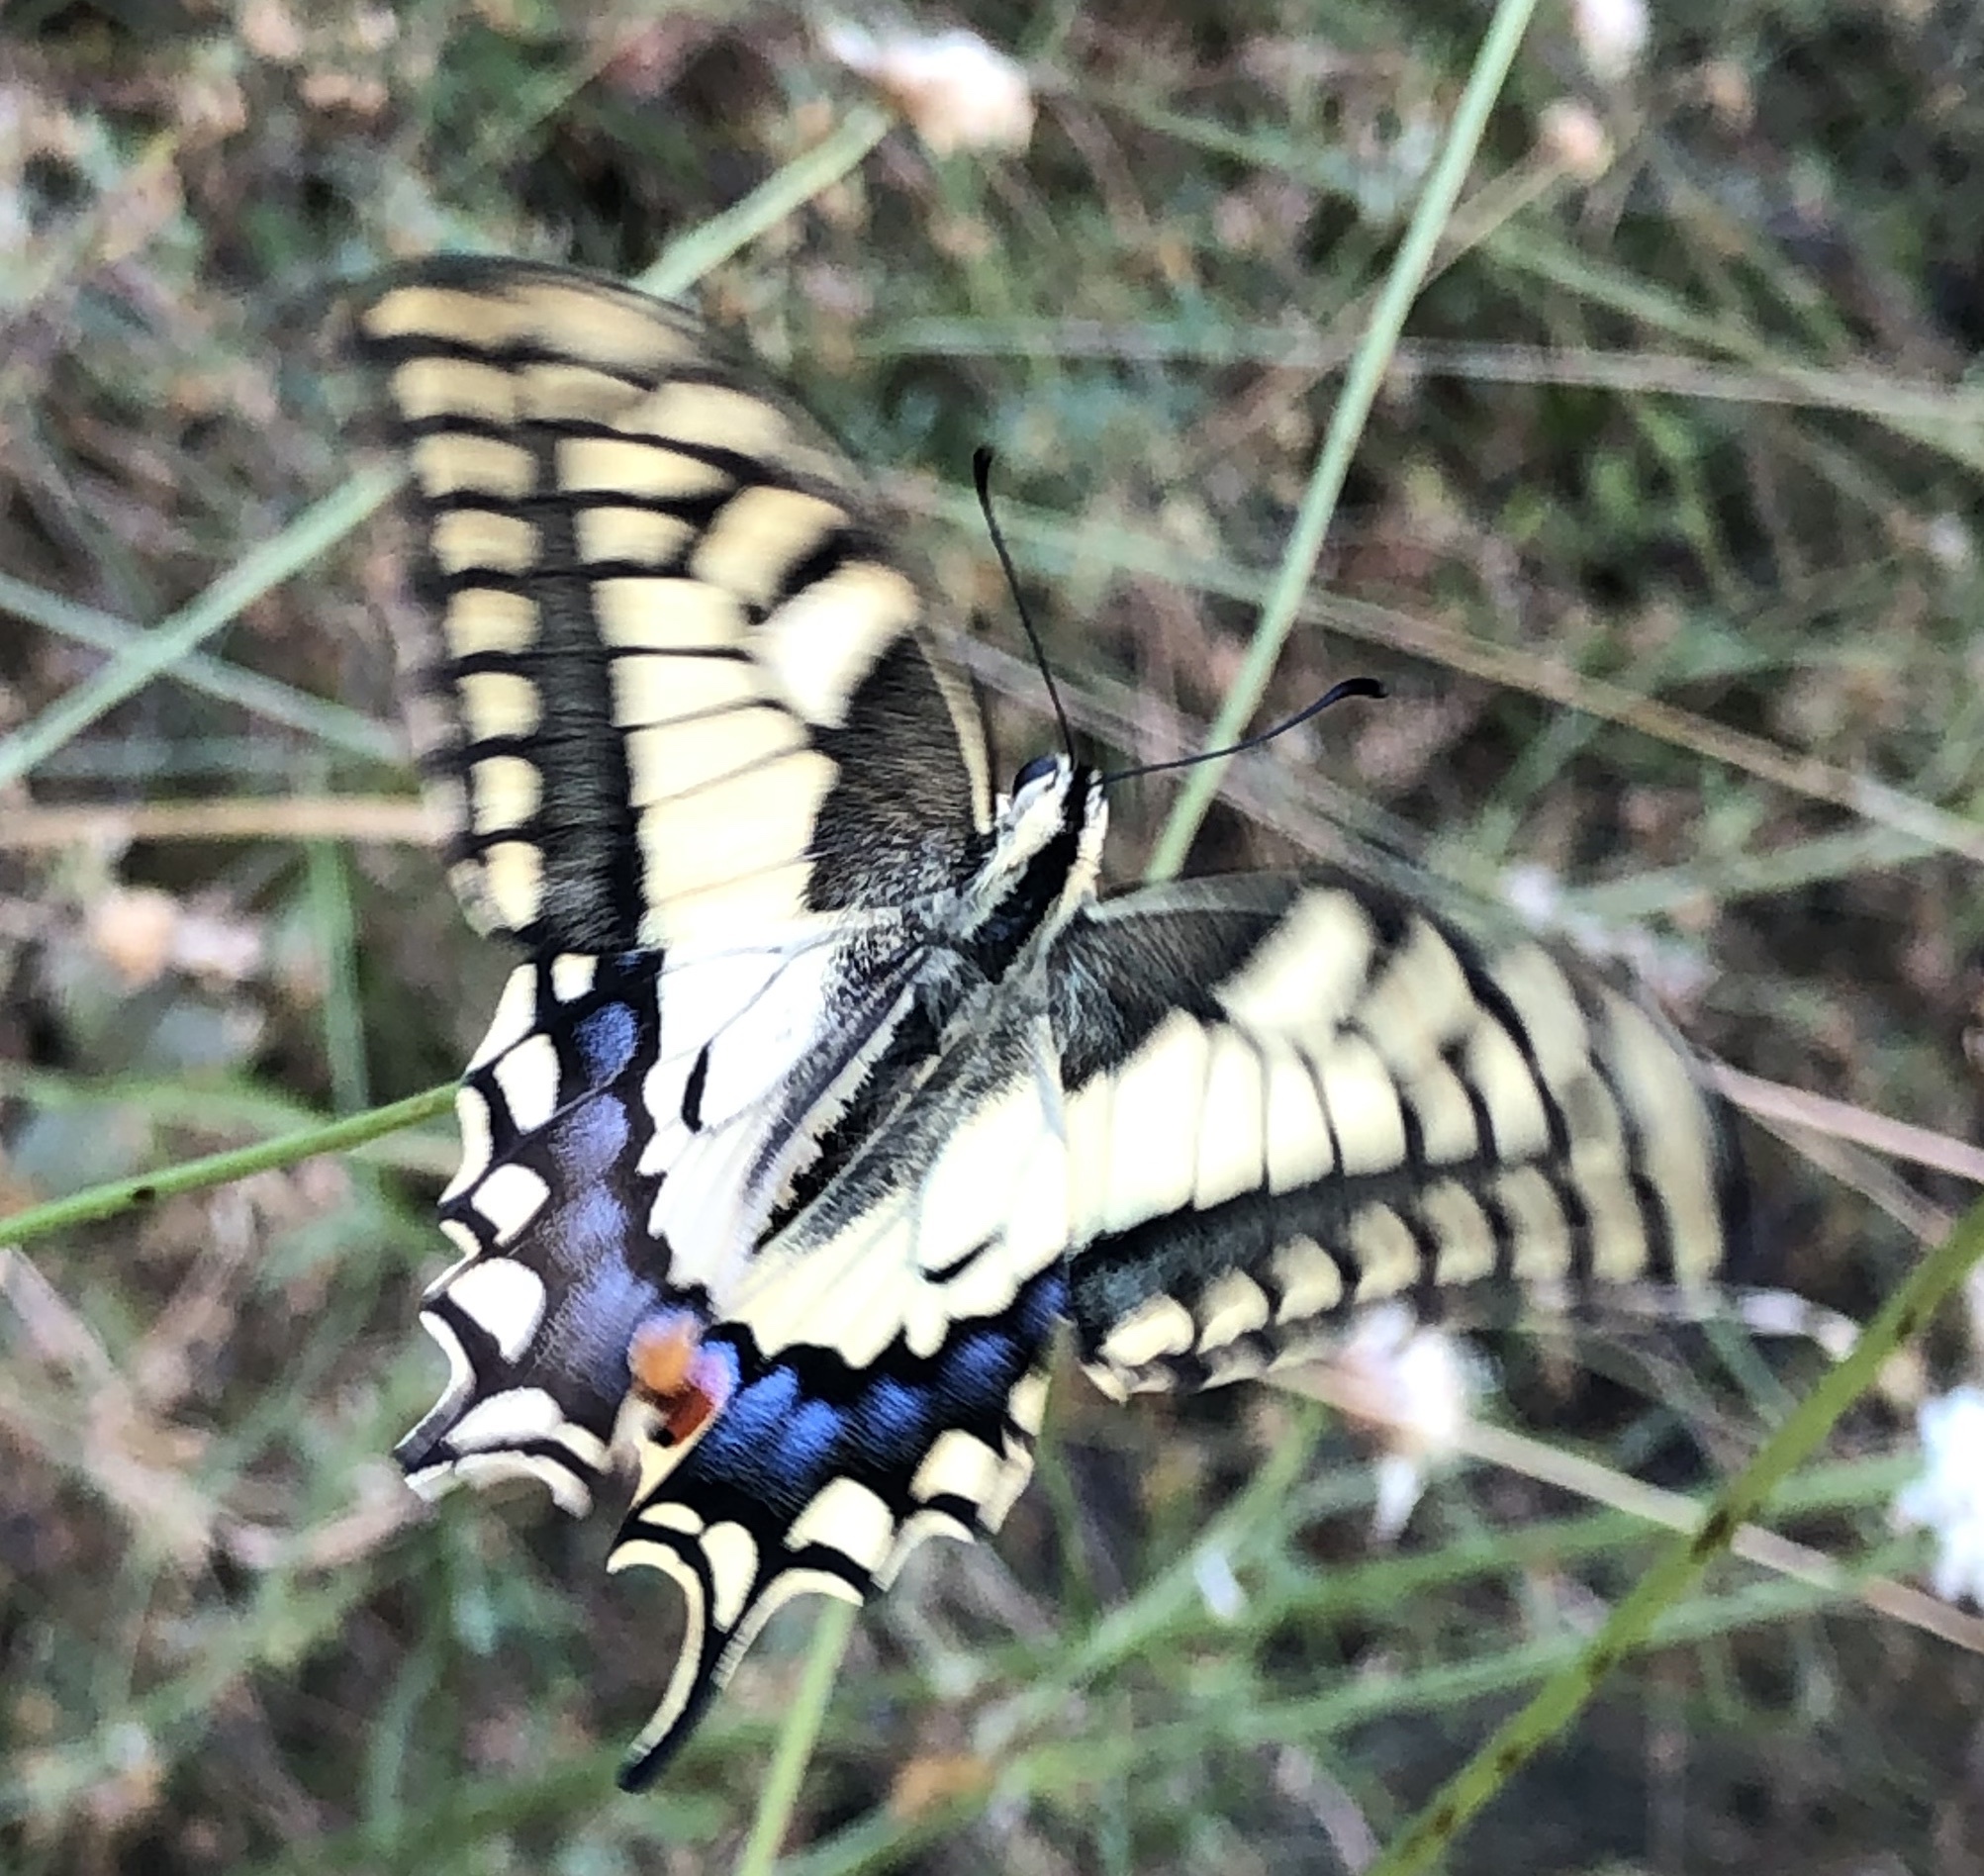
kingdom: Animalia
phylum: Arthropoda
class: Insecta
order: Lepidoptera
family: Papilionidae
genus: Papilio
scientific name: Papilio machaon
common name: Swallowtail
